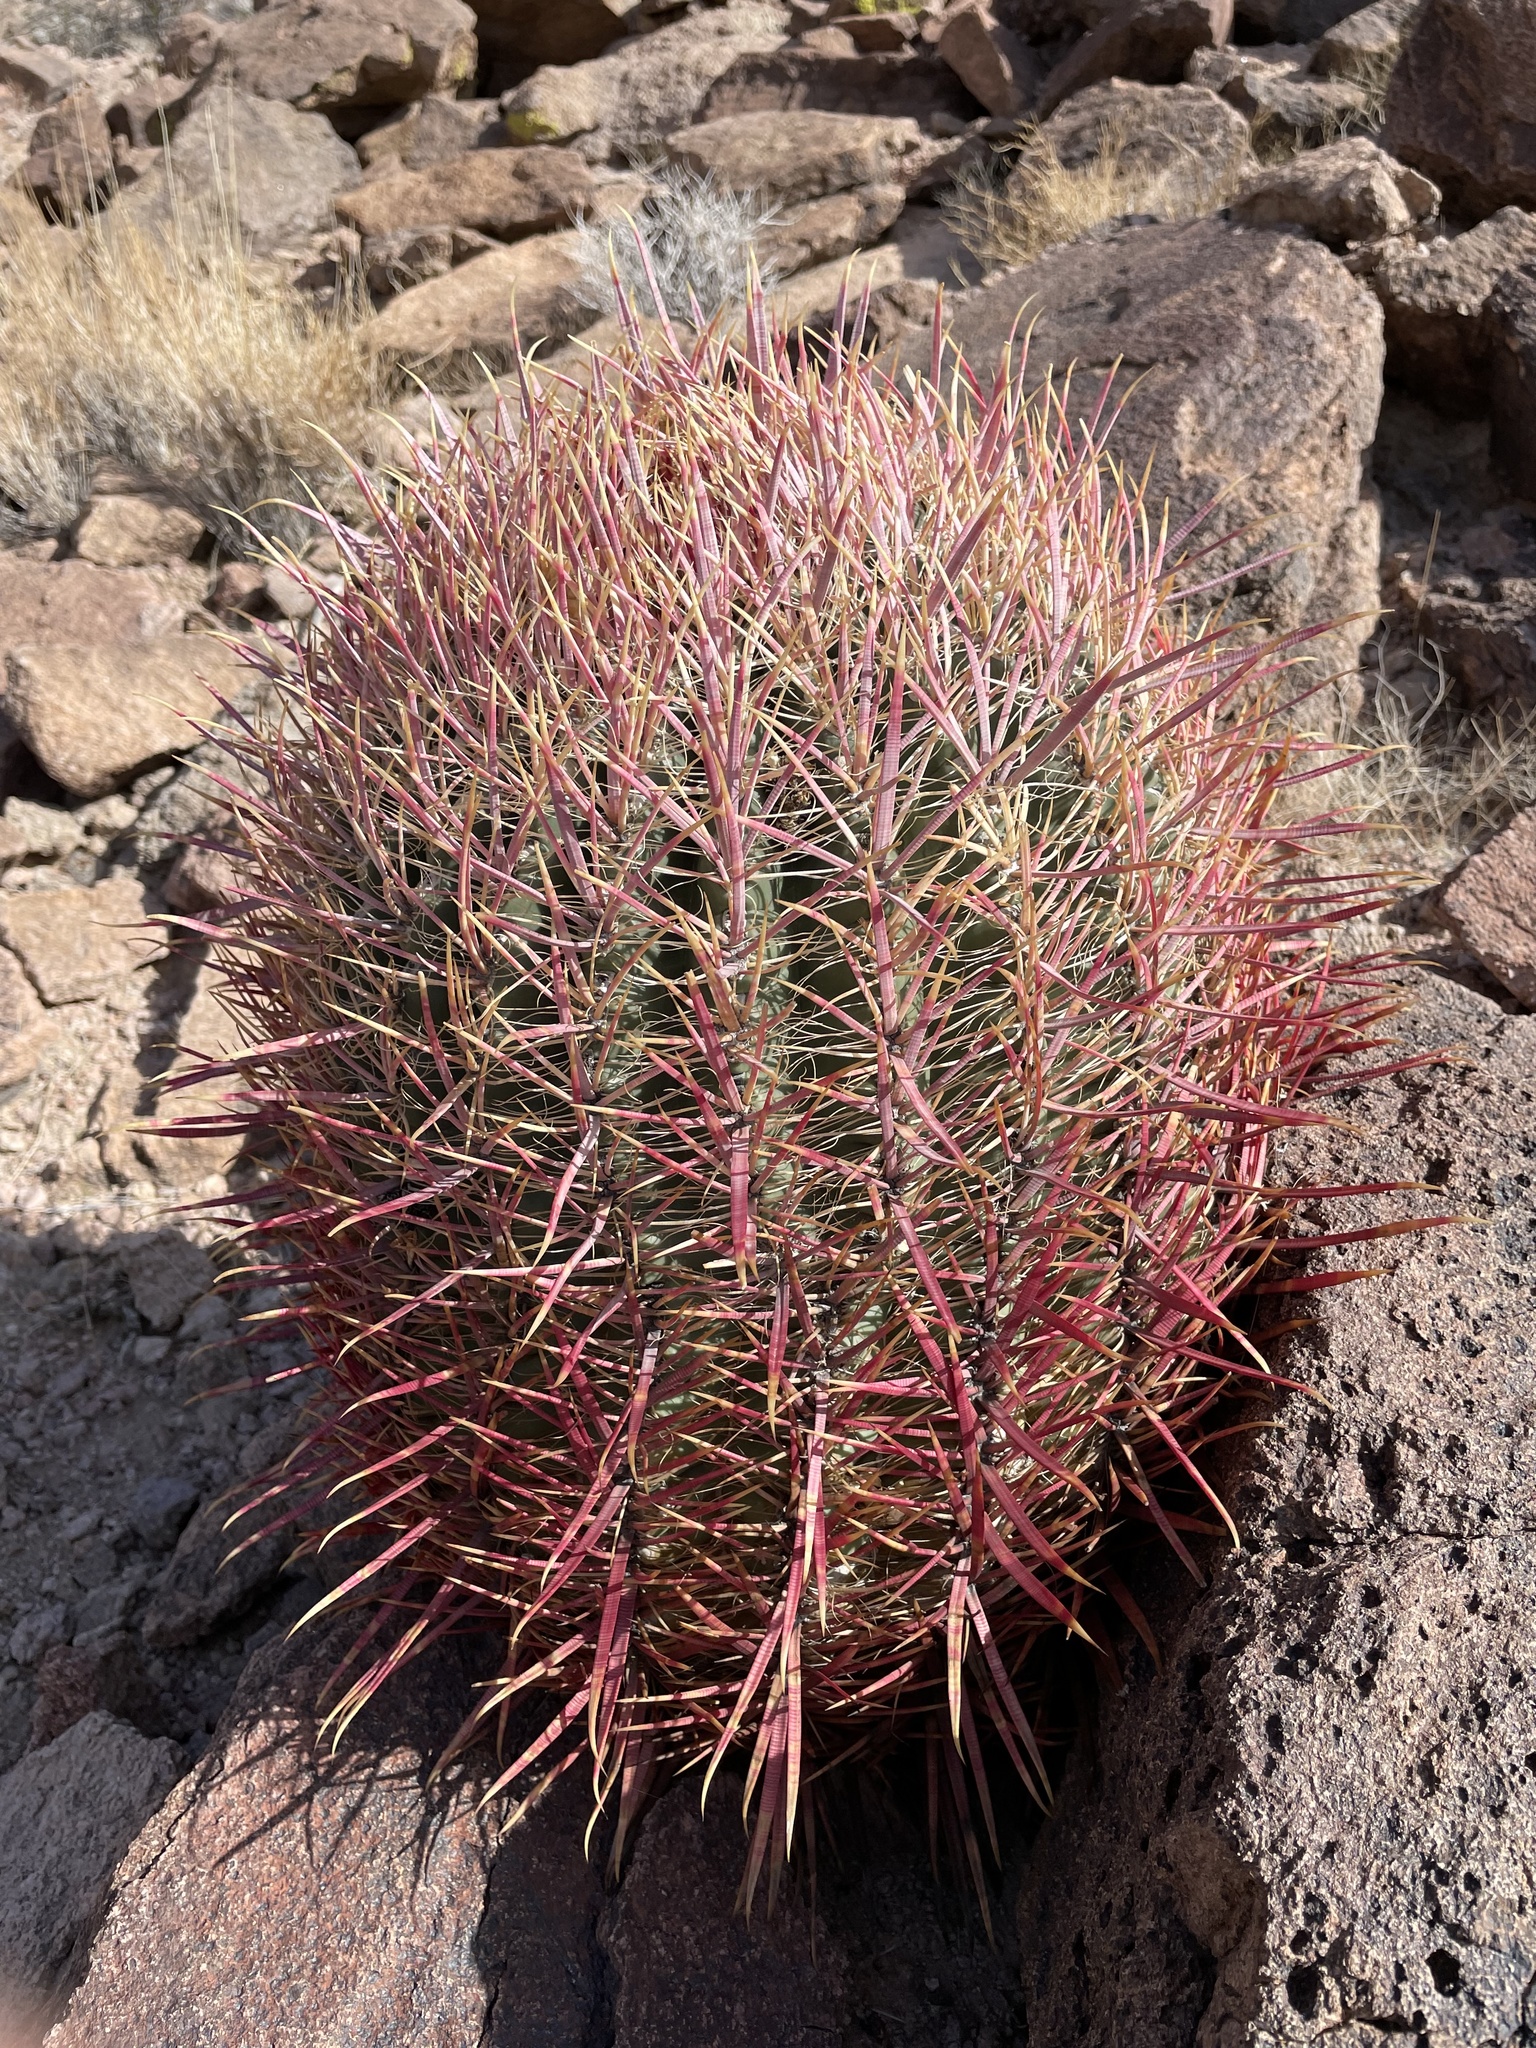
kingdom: Plantae
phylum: Tracheophyta
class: Magnoliopsida
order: Caryophyllales
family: Cactaceae
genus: Ferocactus
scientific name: Ferocactus cylindraceus
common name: California barrel cactus
